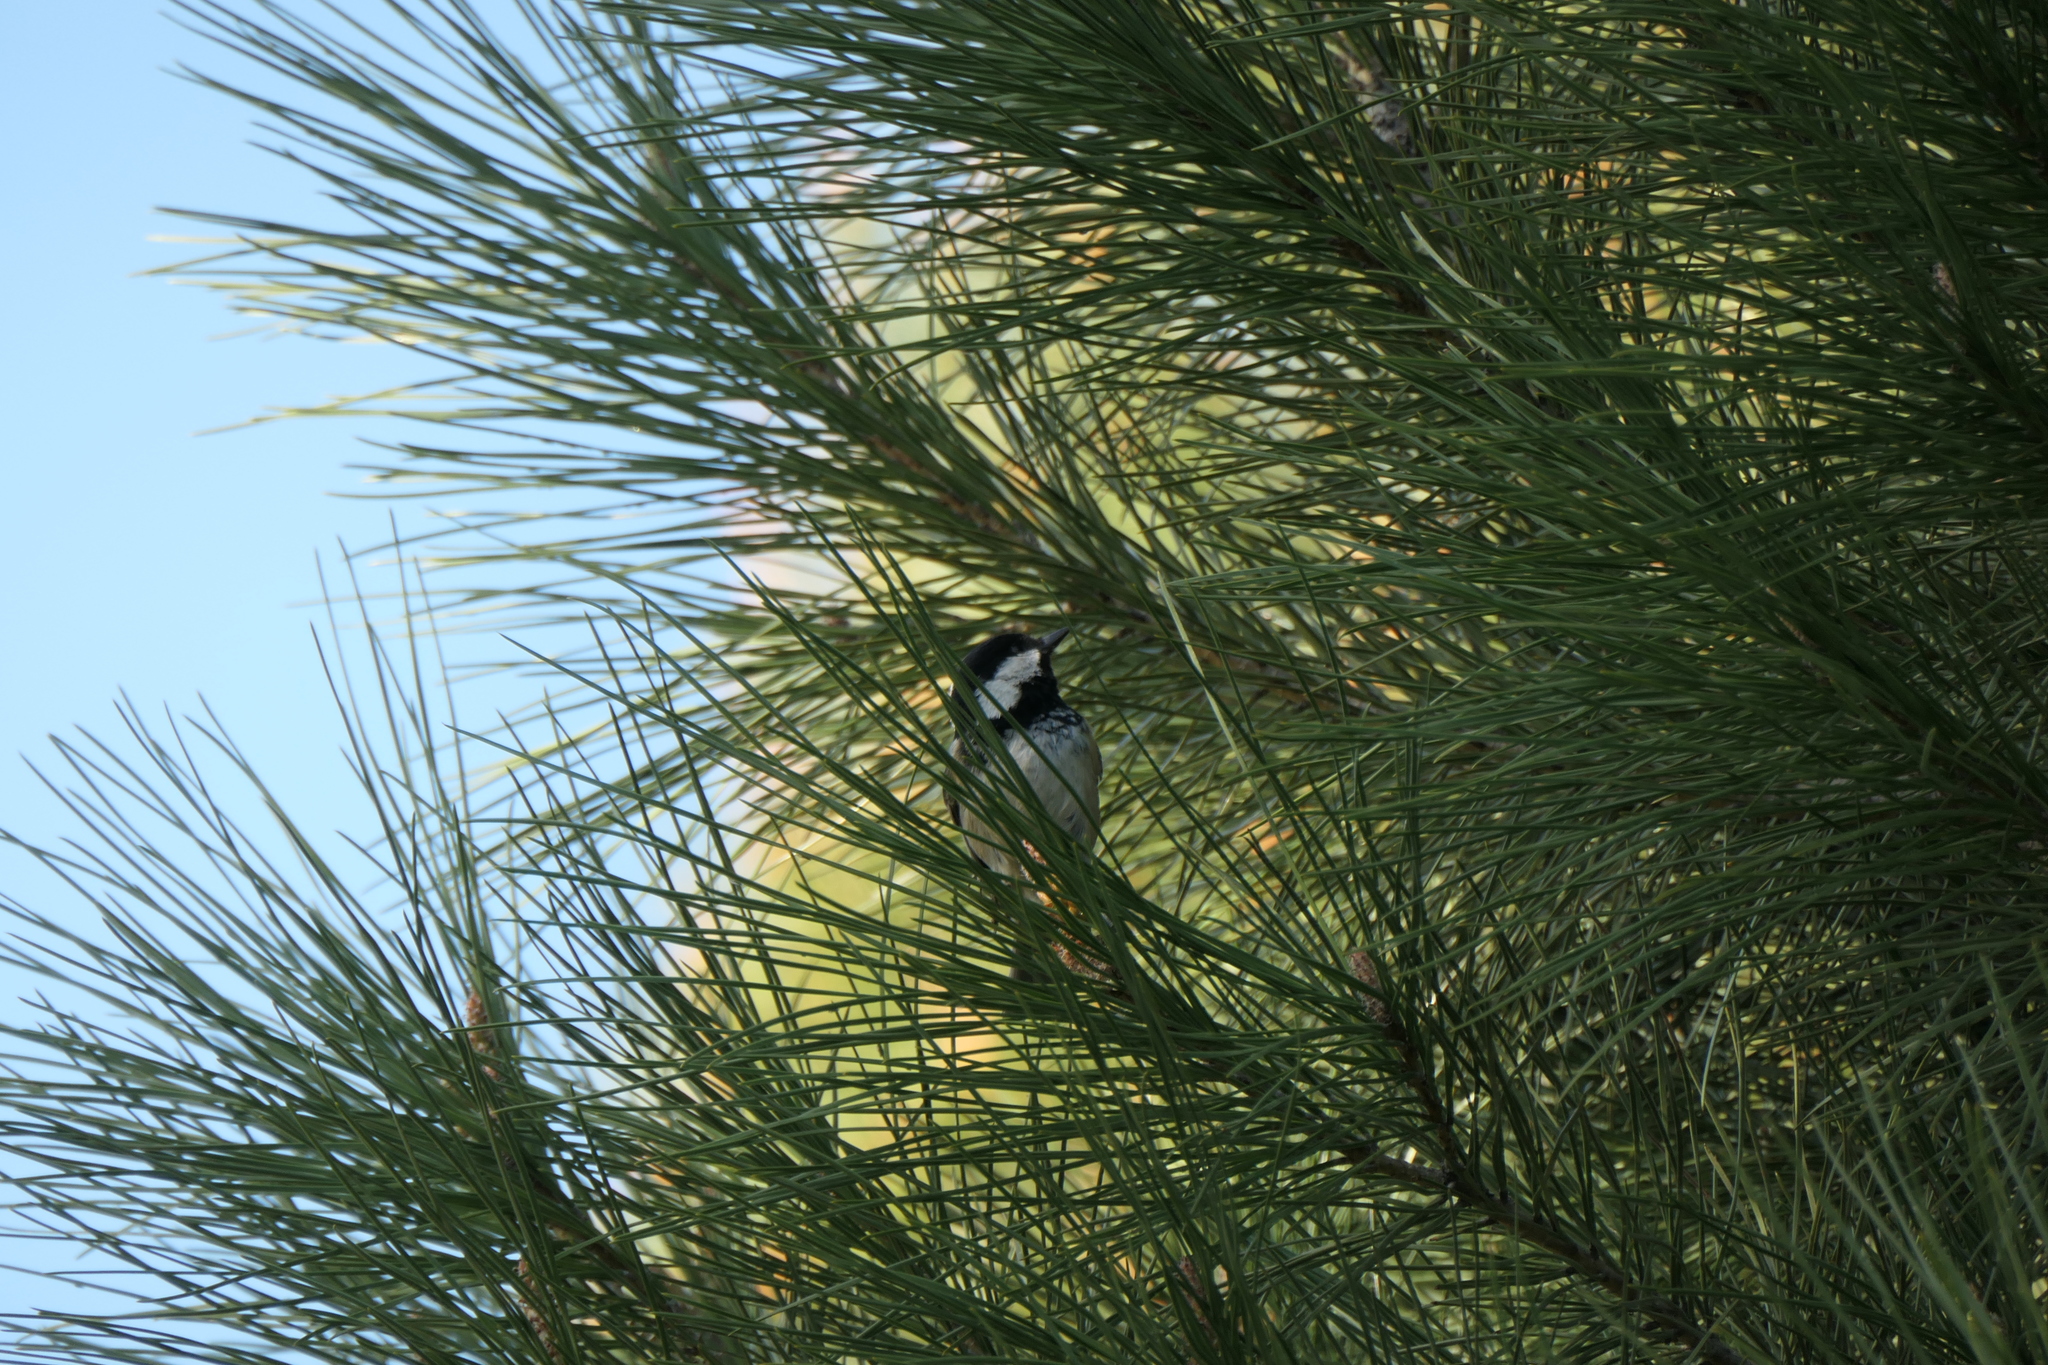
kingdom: Animalia
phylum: Chordata
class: Aves
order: Passeriformes
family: Paridae
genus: Periparus
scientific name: Periparus ater
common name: Coal tit
